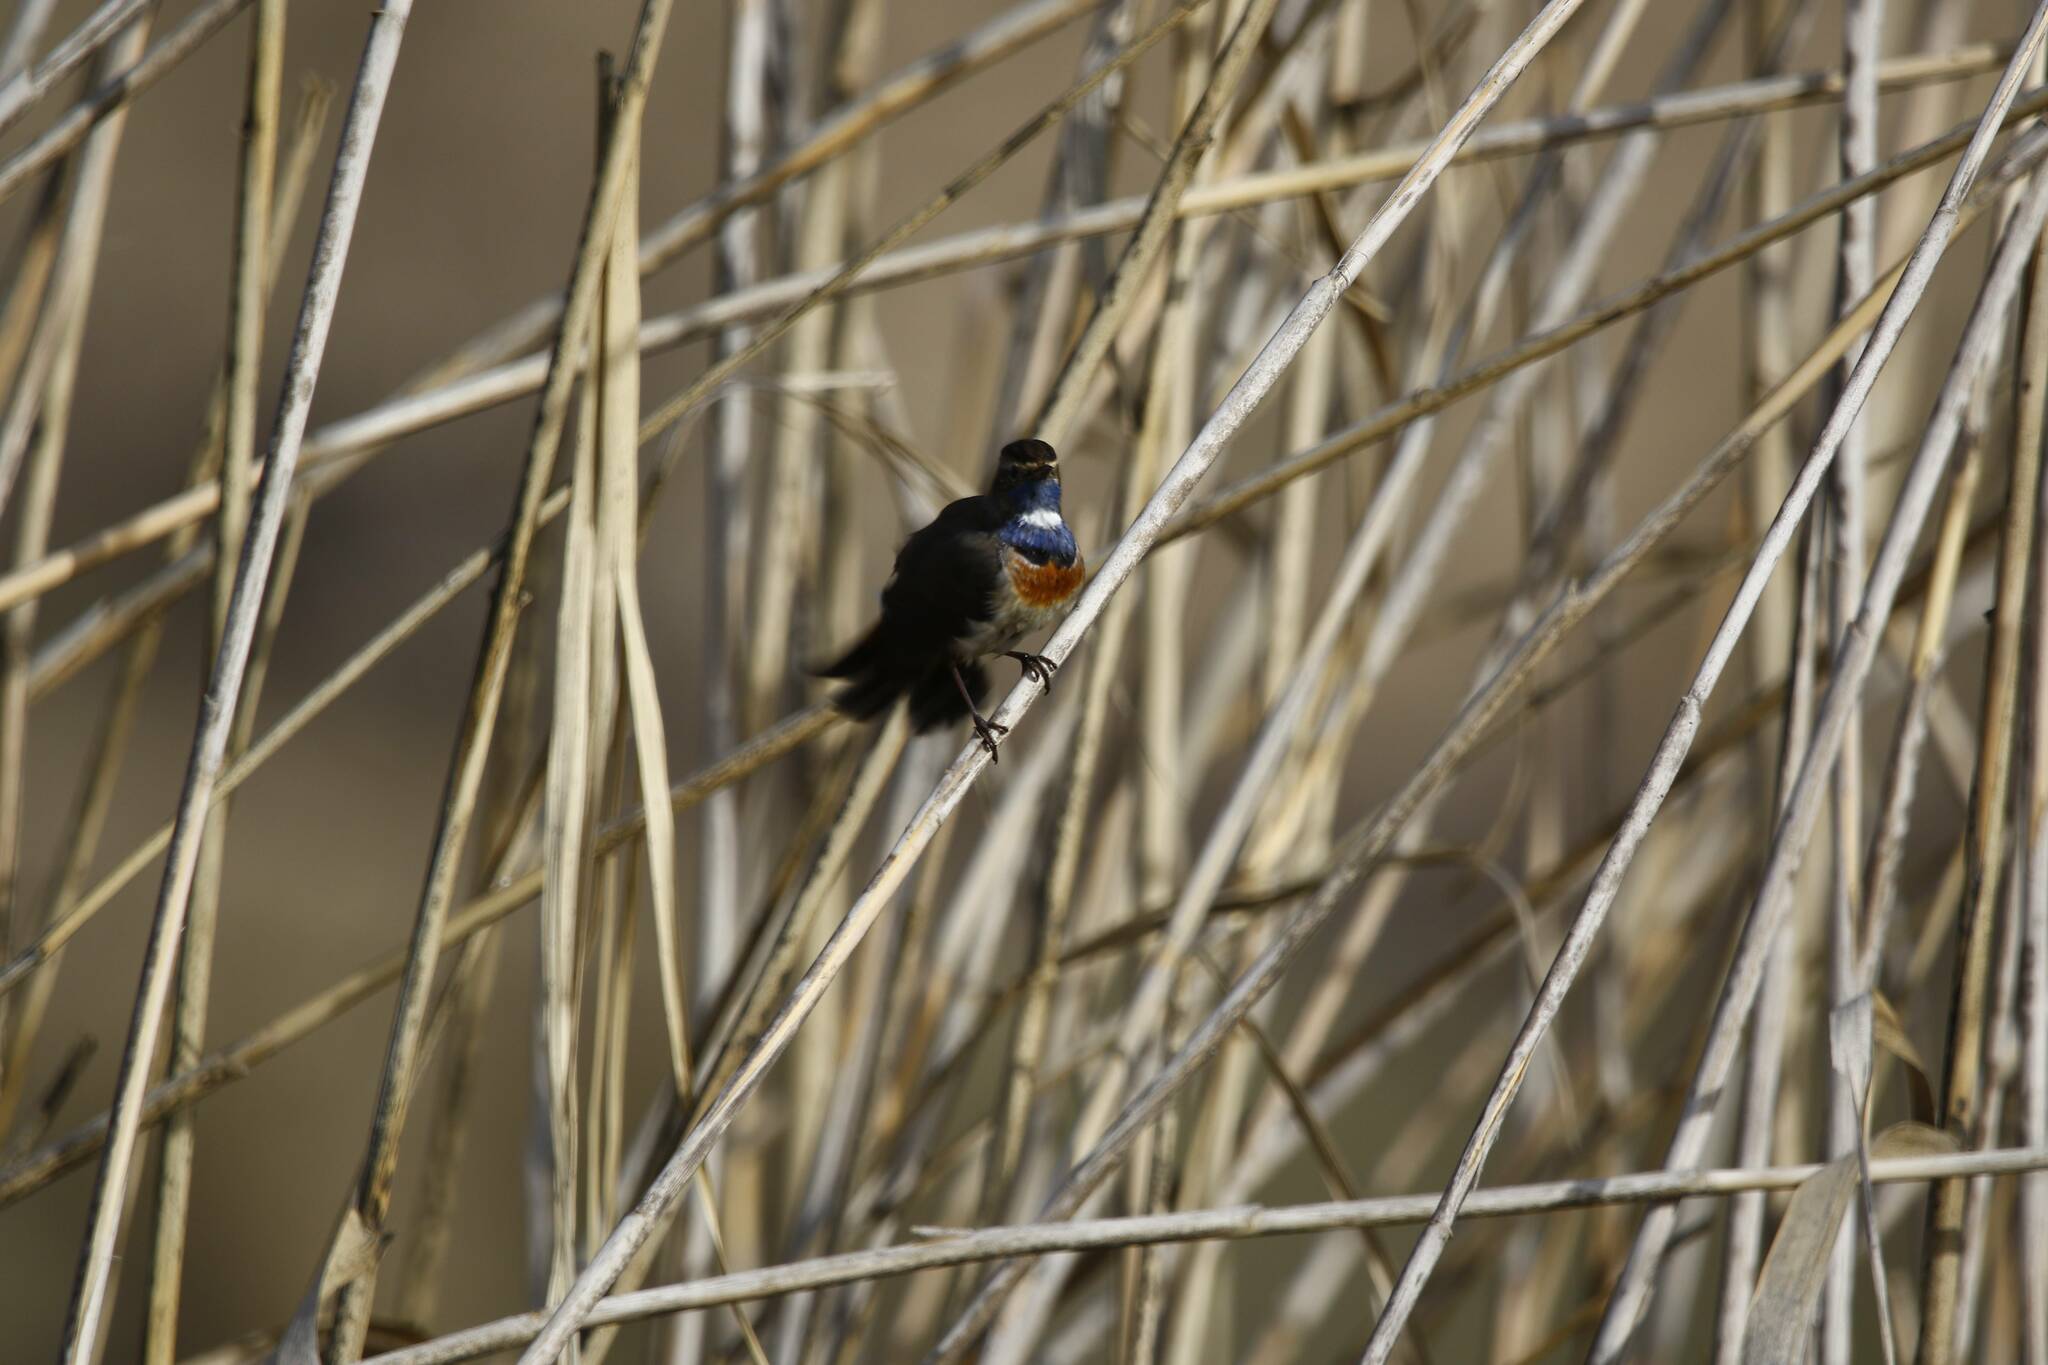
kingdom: Animalia
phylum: Chordata
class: Aves
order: Passeriformes
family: Muscicapidae
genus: Luscinia
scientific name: Luscinia svecica
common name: Bluethroat
